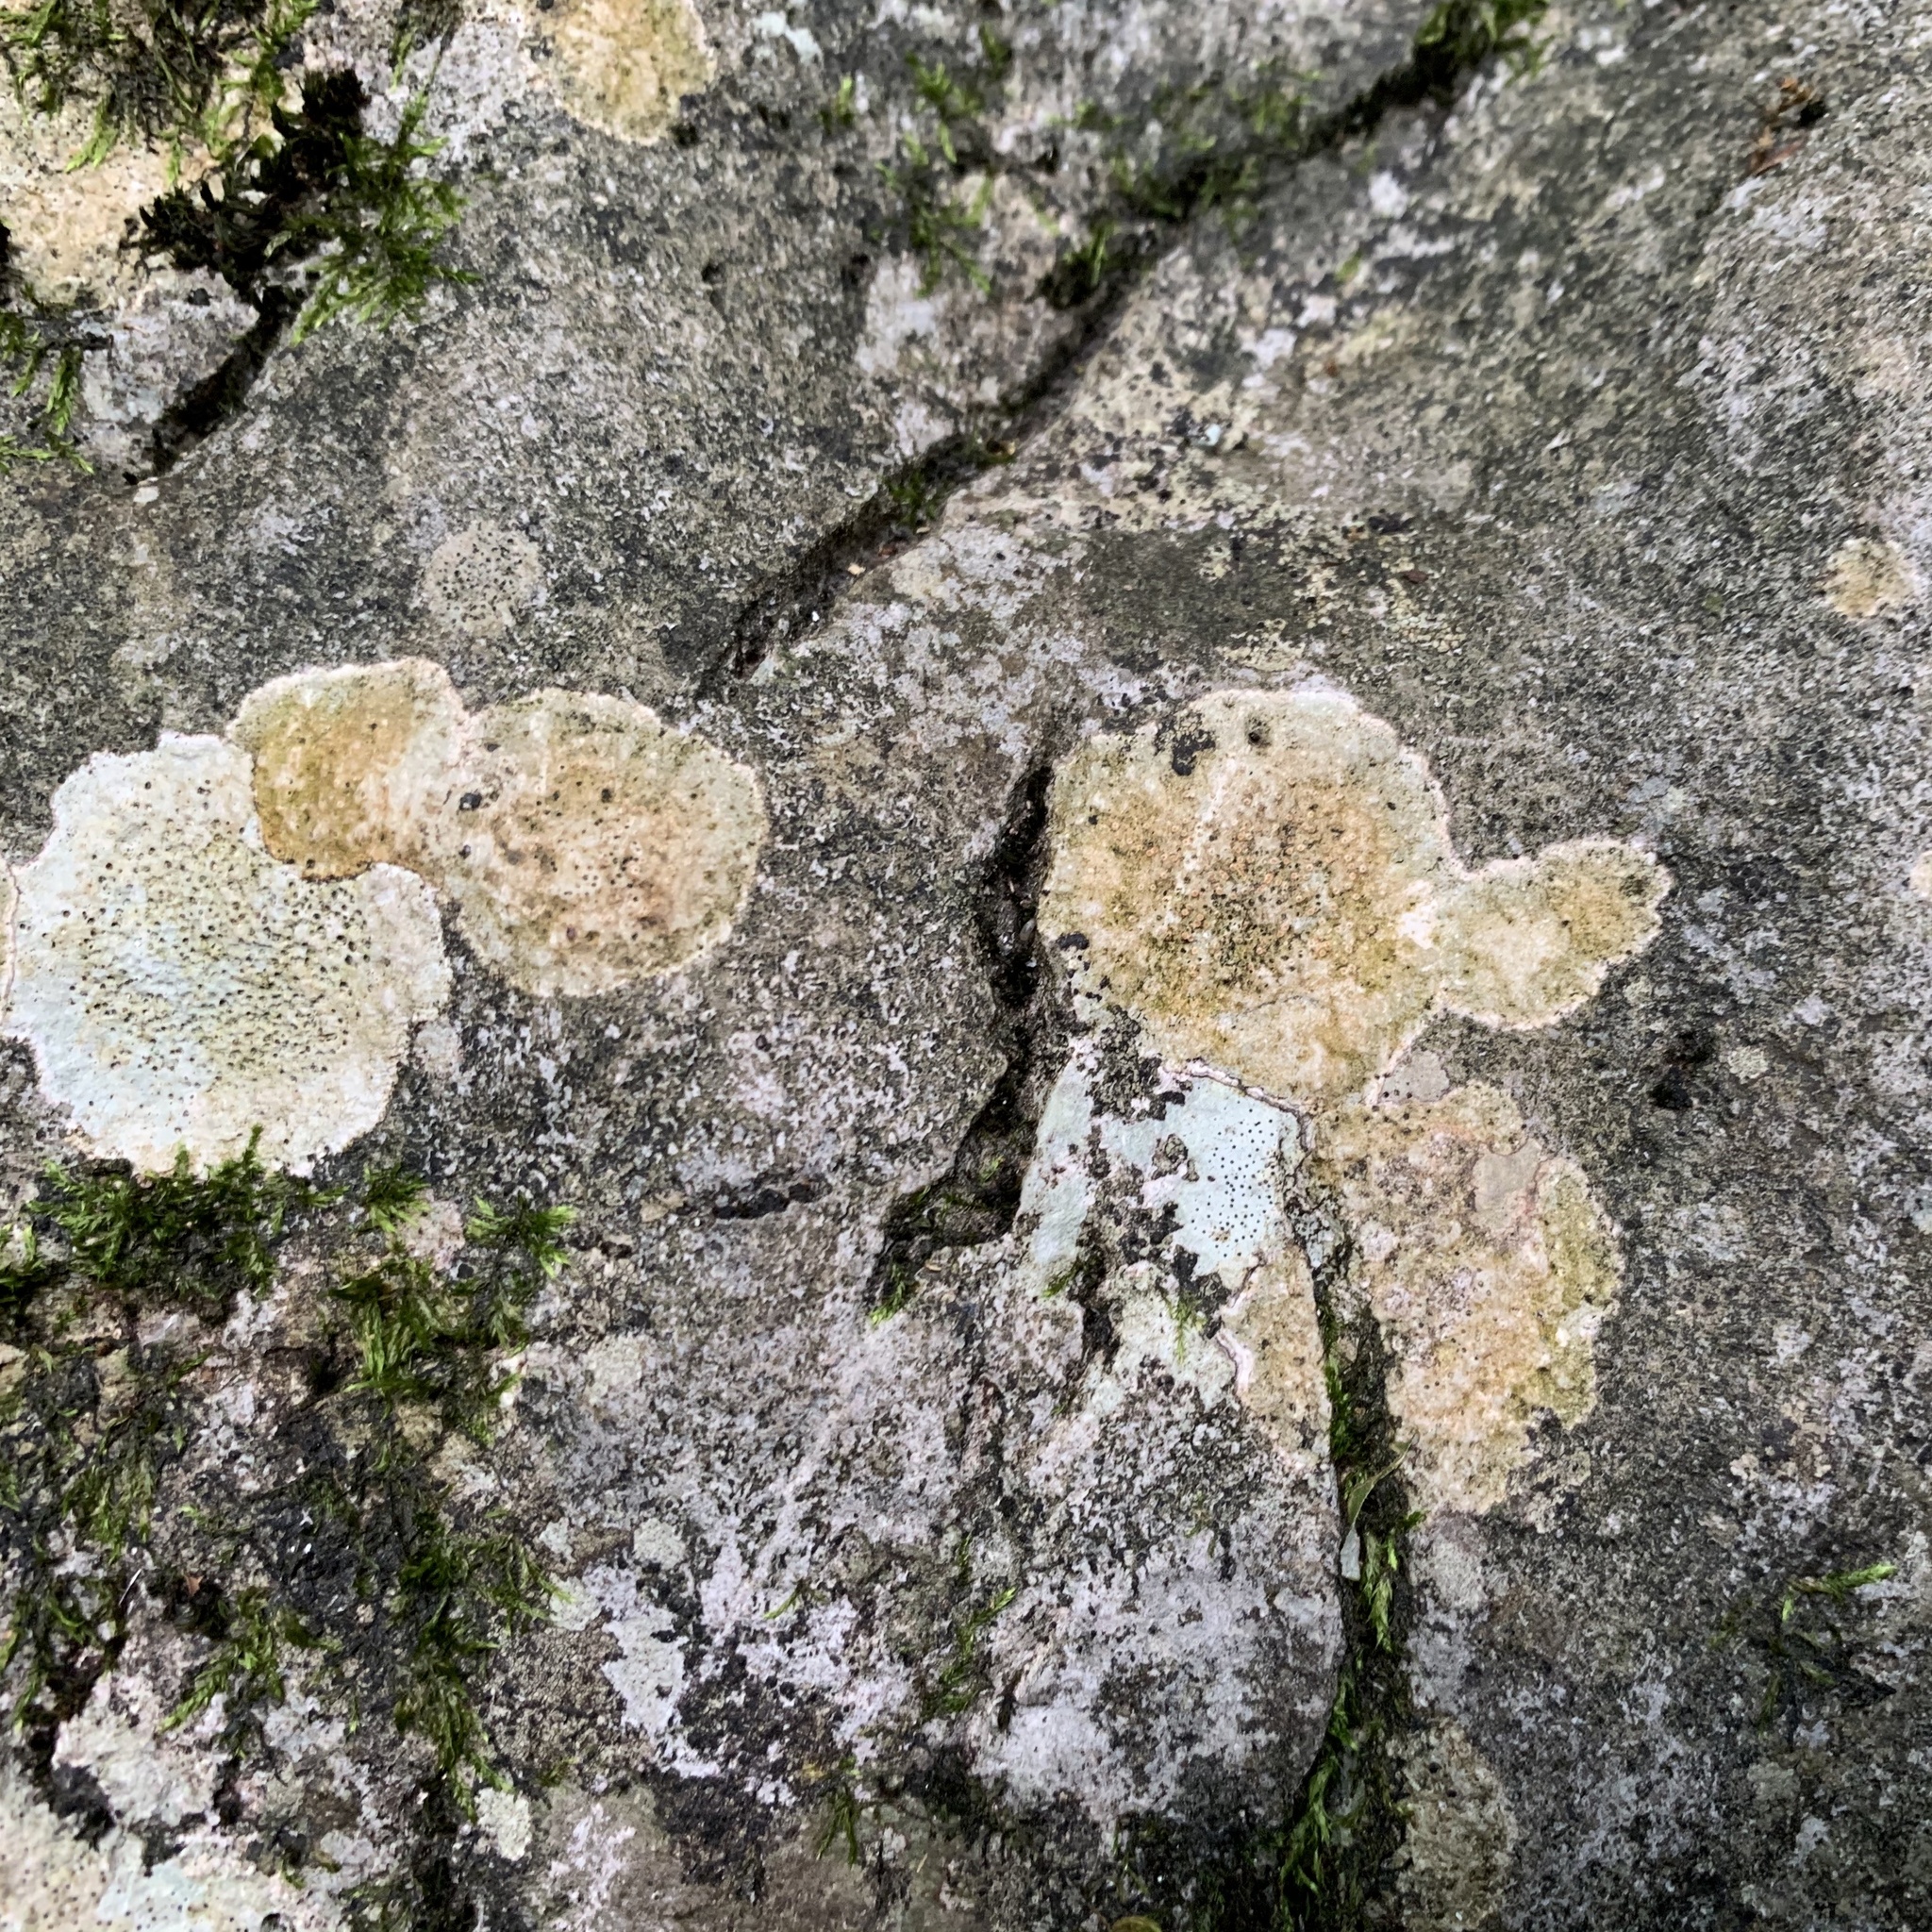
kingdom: Fungi
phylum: Ascomycota
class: Lecanoromycetes
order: Ostropales
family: Stictidaceae
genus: Petractis
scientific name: Petractis farlowii
